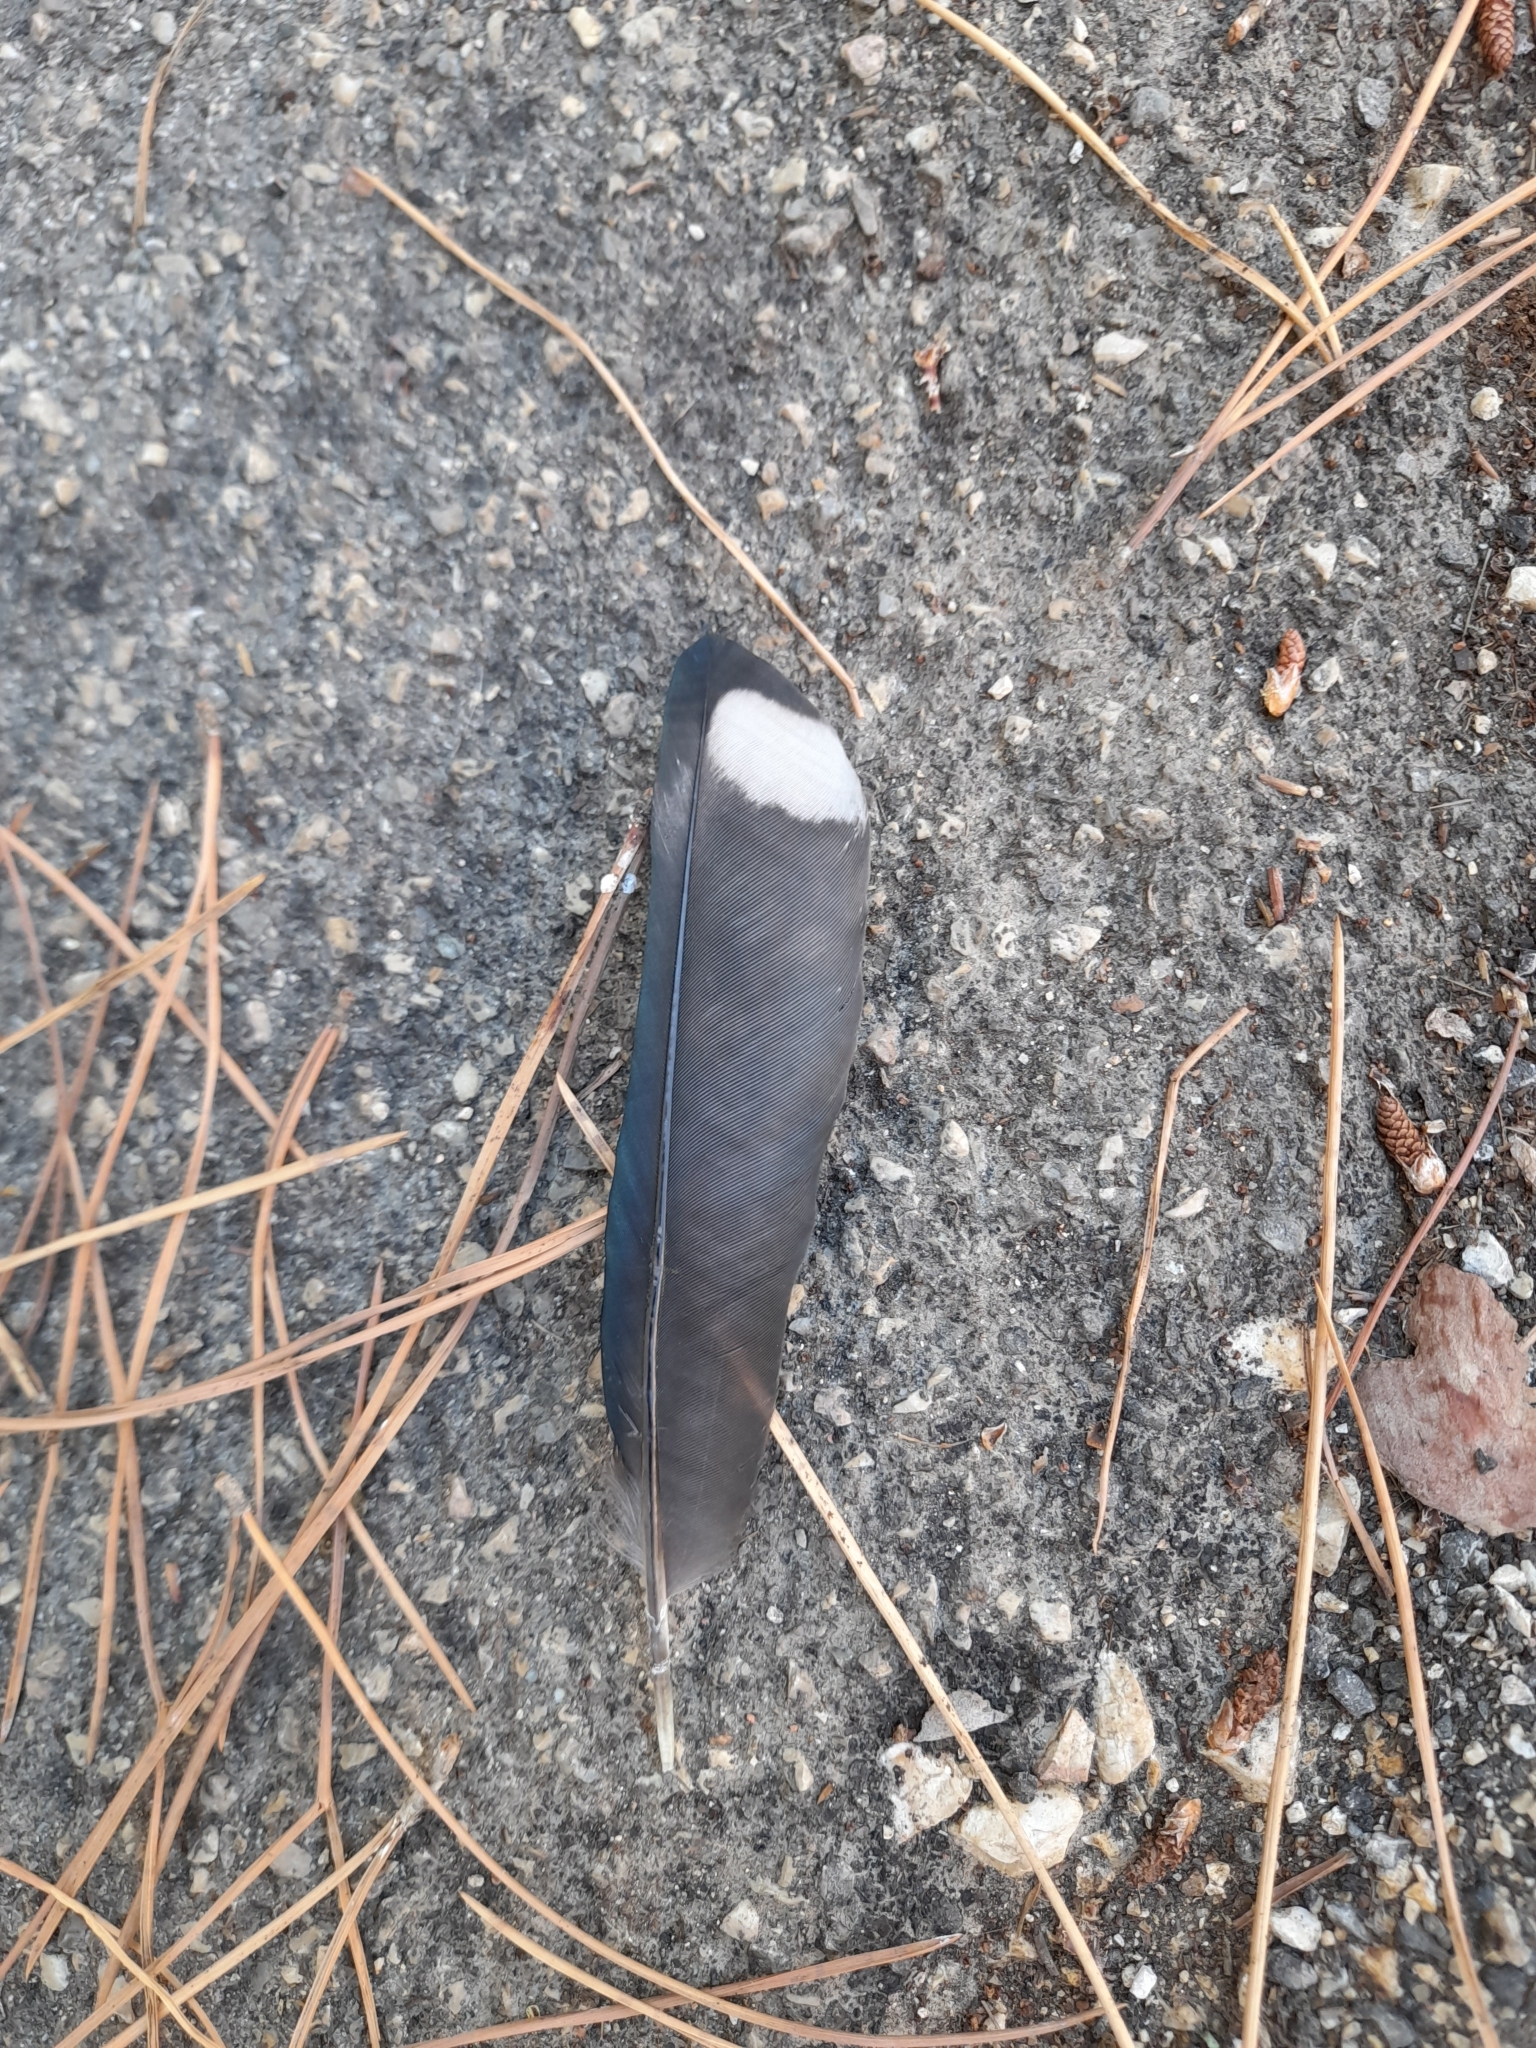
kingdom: Animalia
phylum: Chordata
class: Aves
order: Passeriformes
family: Corvidae
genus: Pica
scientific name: Pica pica
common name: Eurasian magpie
